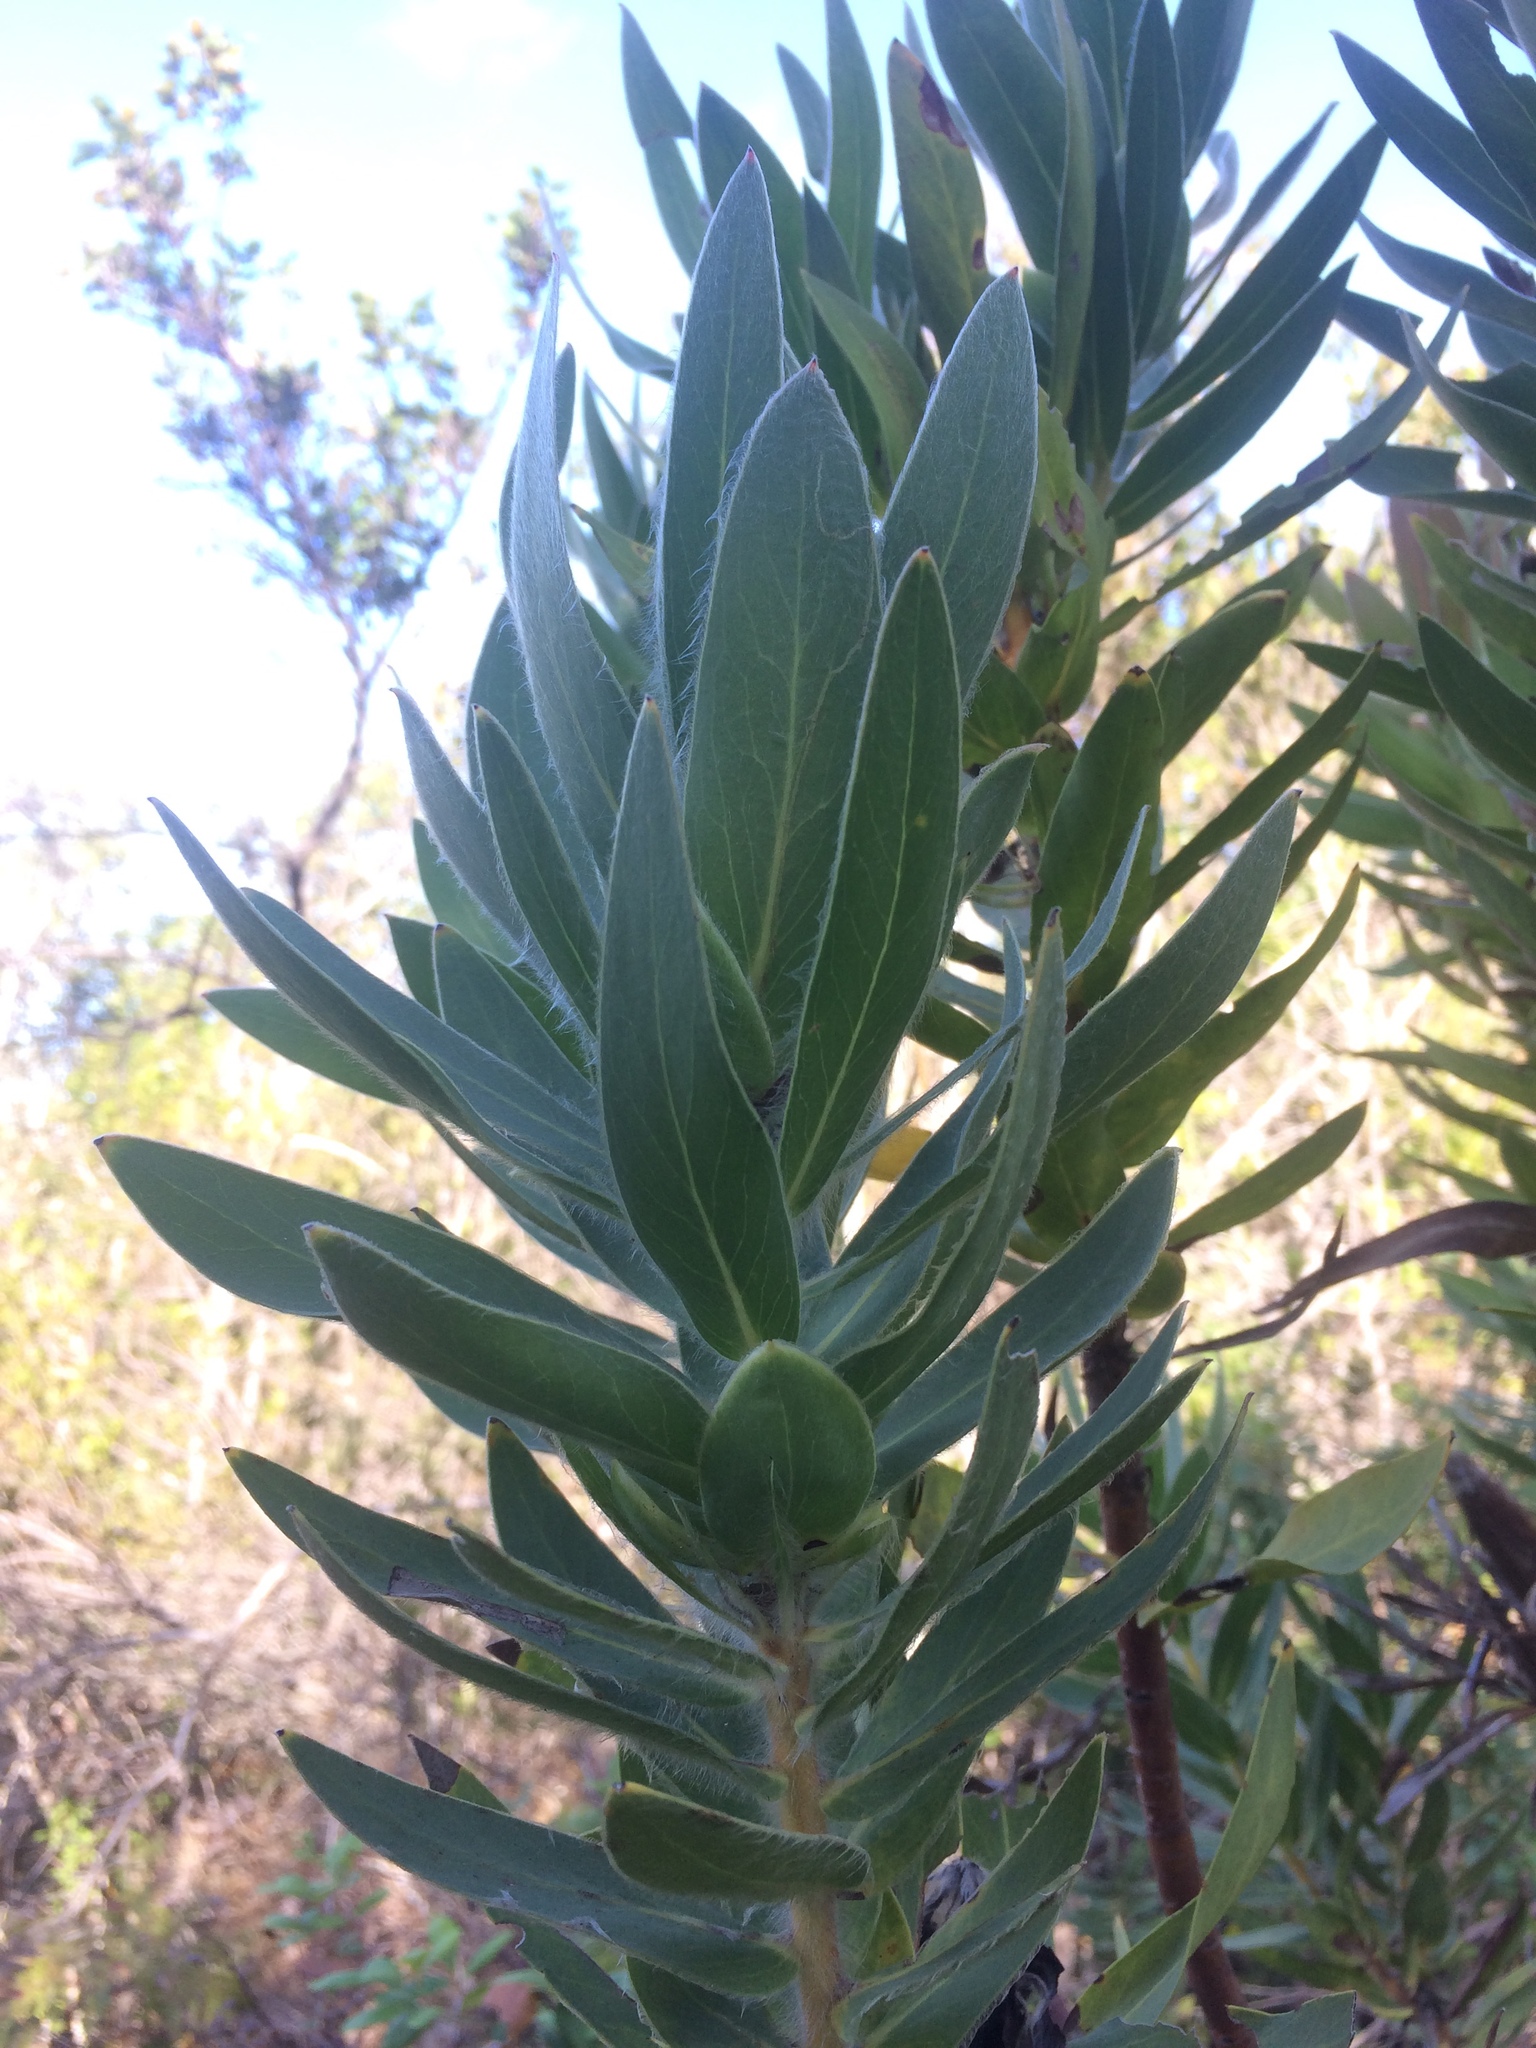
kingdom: Plantae
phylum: Tracheophyta
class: Magnoliopsida
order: Proteales
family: Proteaceae
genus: Protea
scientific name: Protea coronata
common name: Green sugarbush
